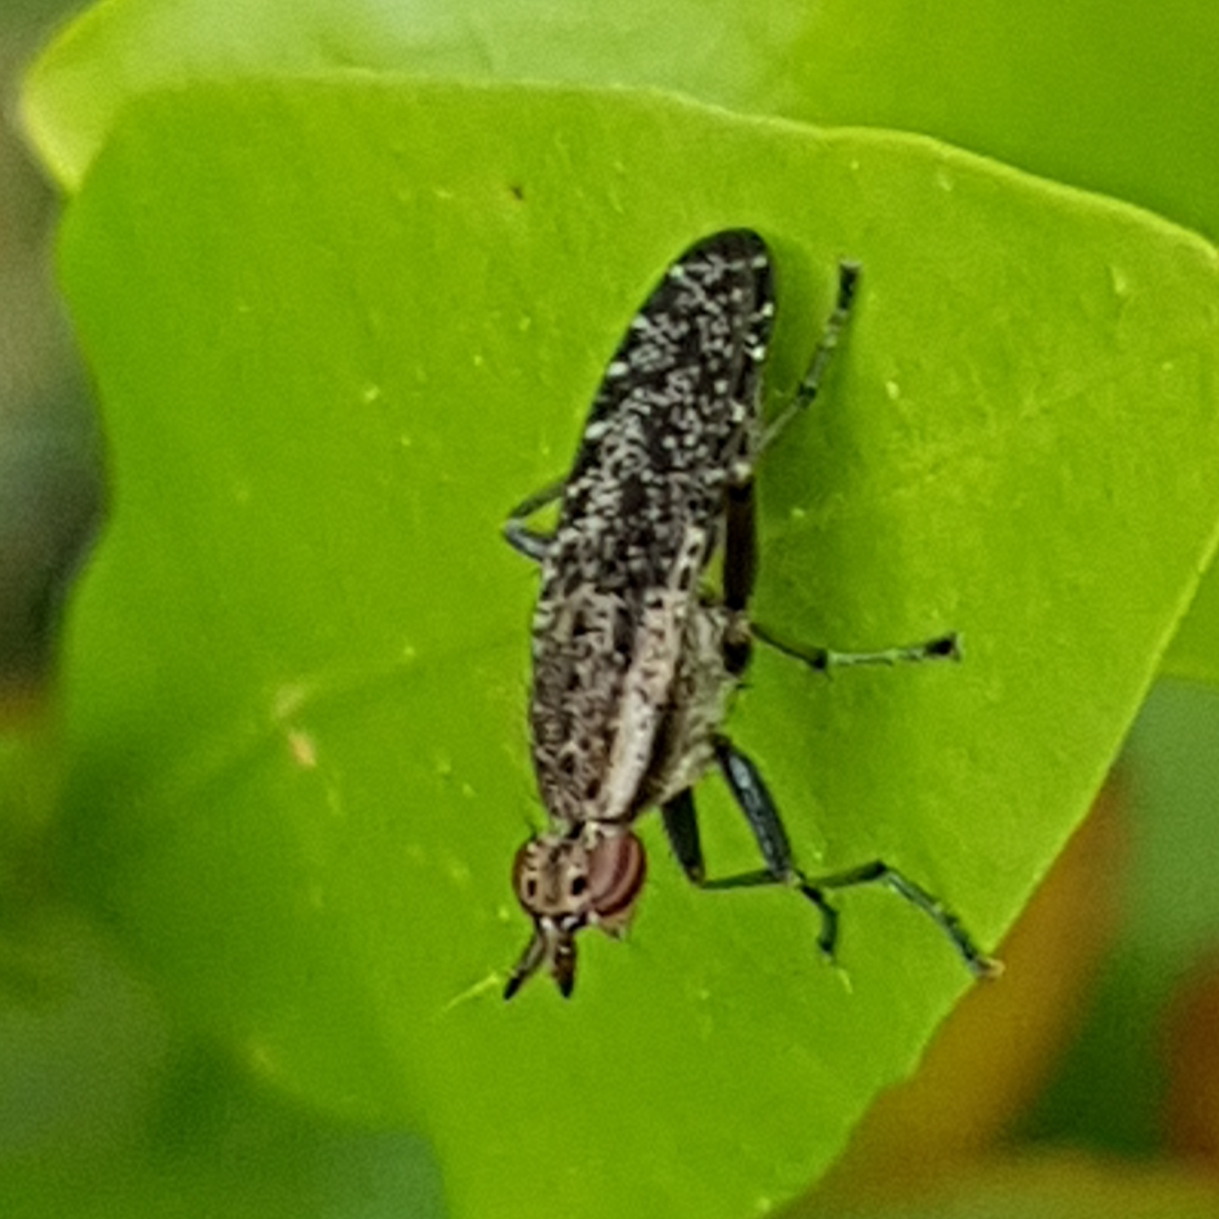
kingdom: Animalia
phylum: Arthropoda
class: Insecta
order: Diptera
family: Sciomyzidae
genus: Euthycera
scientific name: Euthycera alaris
